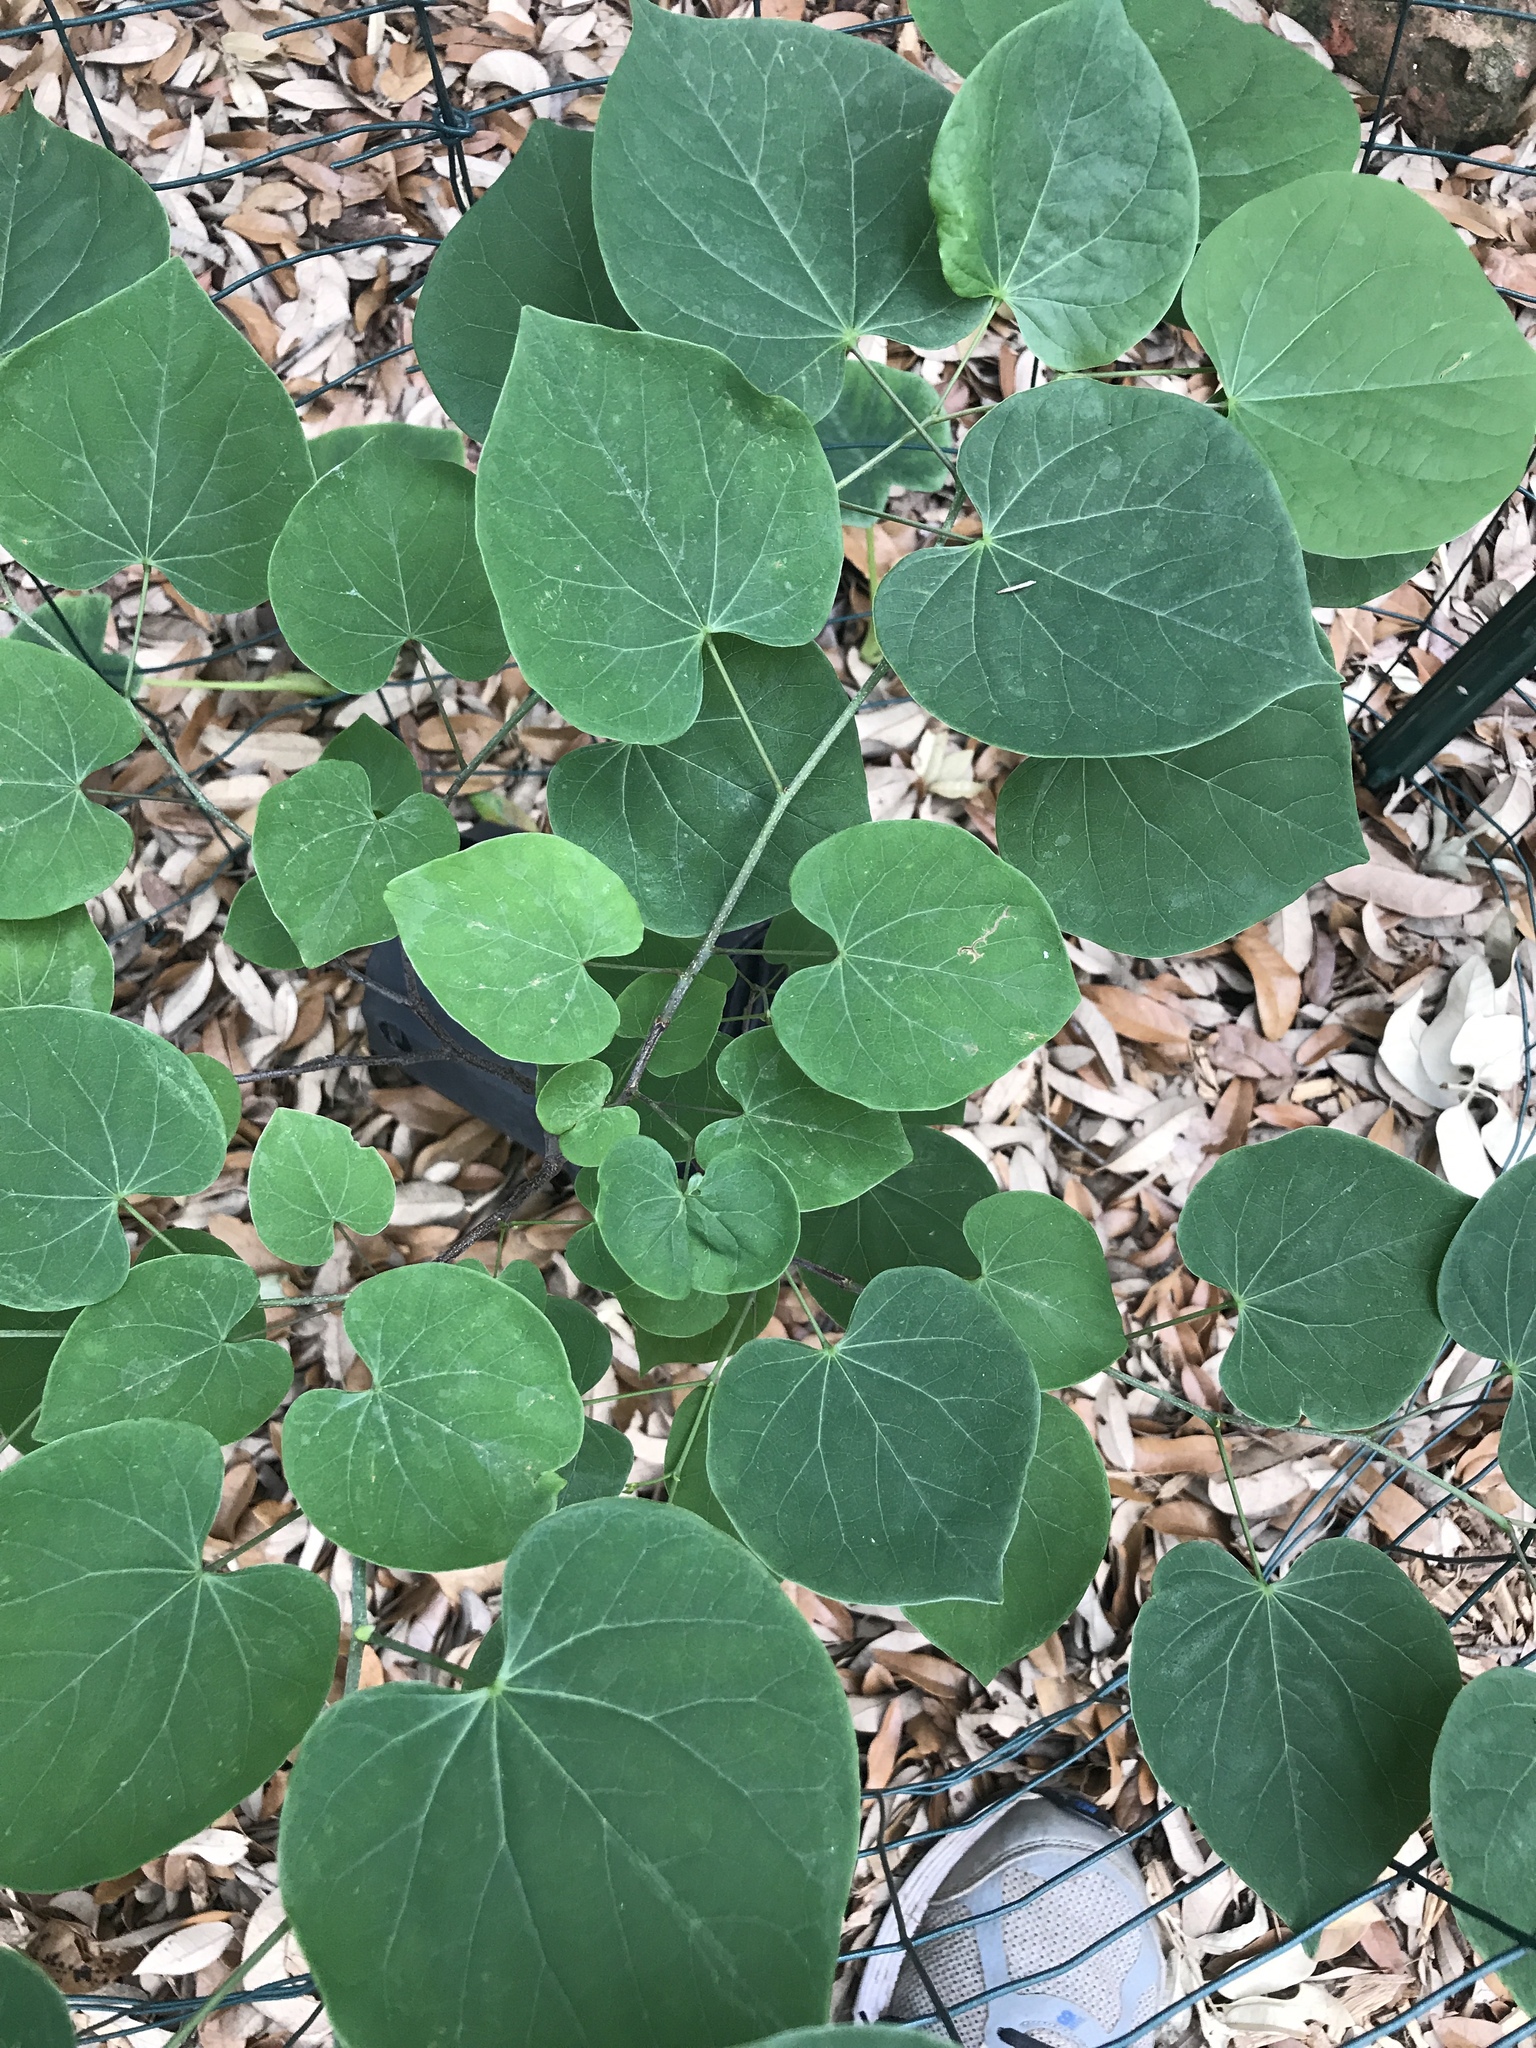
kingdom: Plantae
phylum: Tracheophyta
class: Magnoliopsida
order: Fabales
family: Fabaceae
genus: Cercis
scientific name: Cercis canadensis
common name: Eastern redbud
